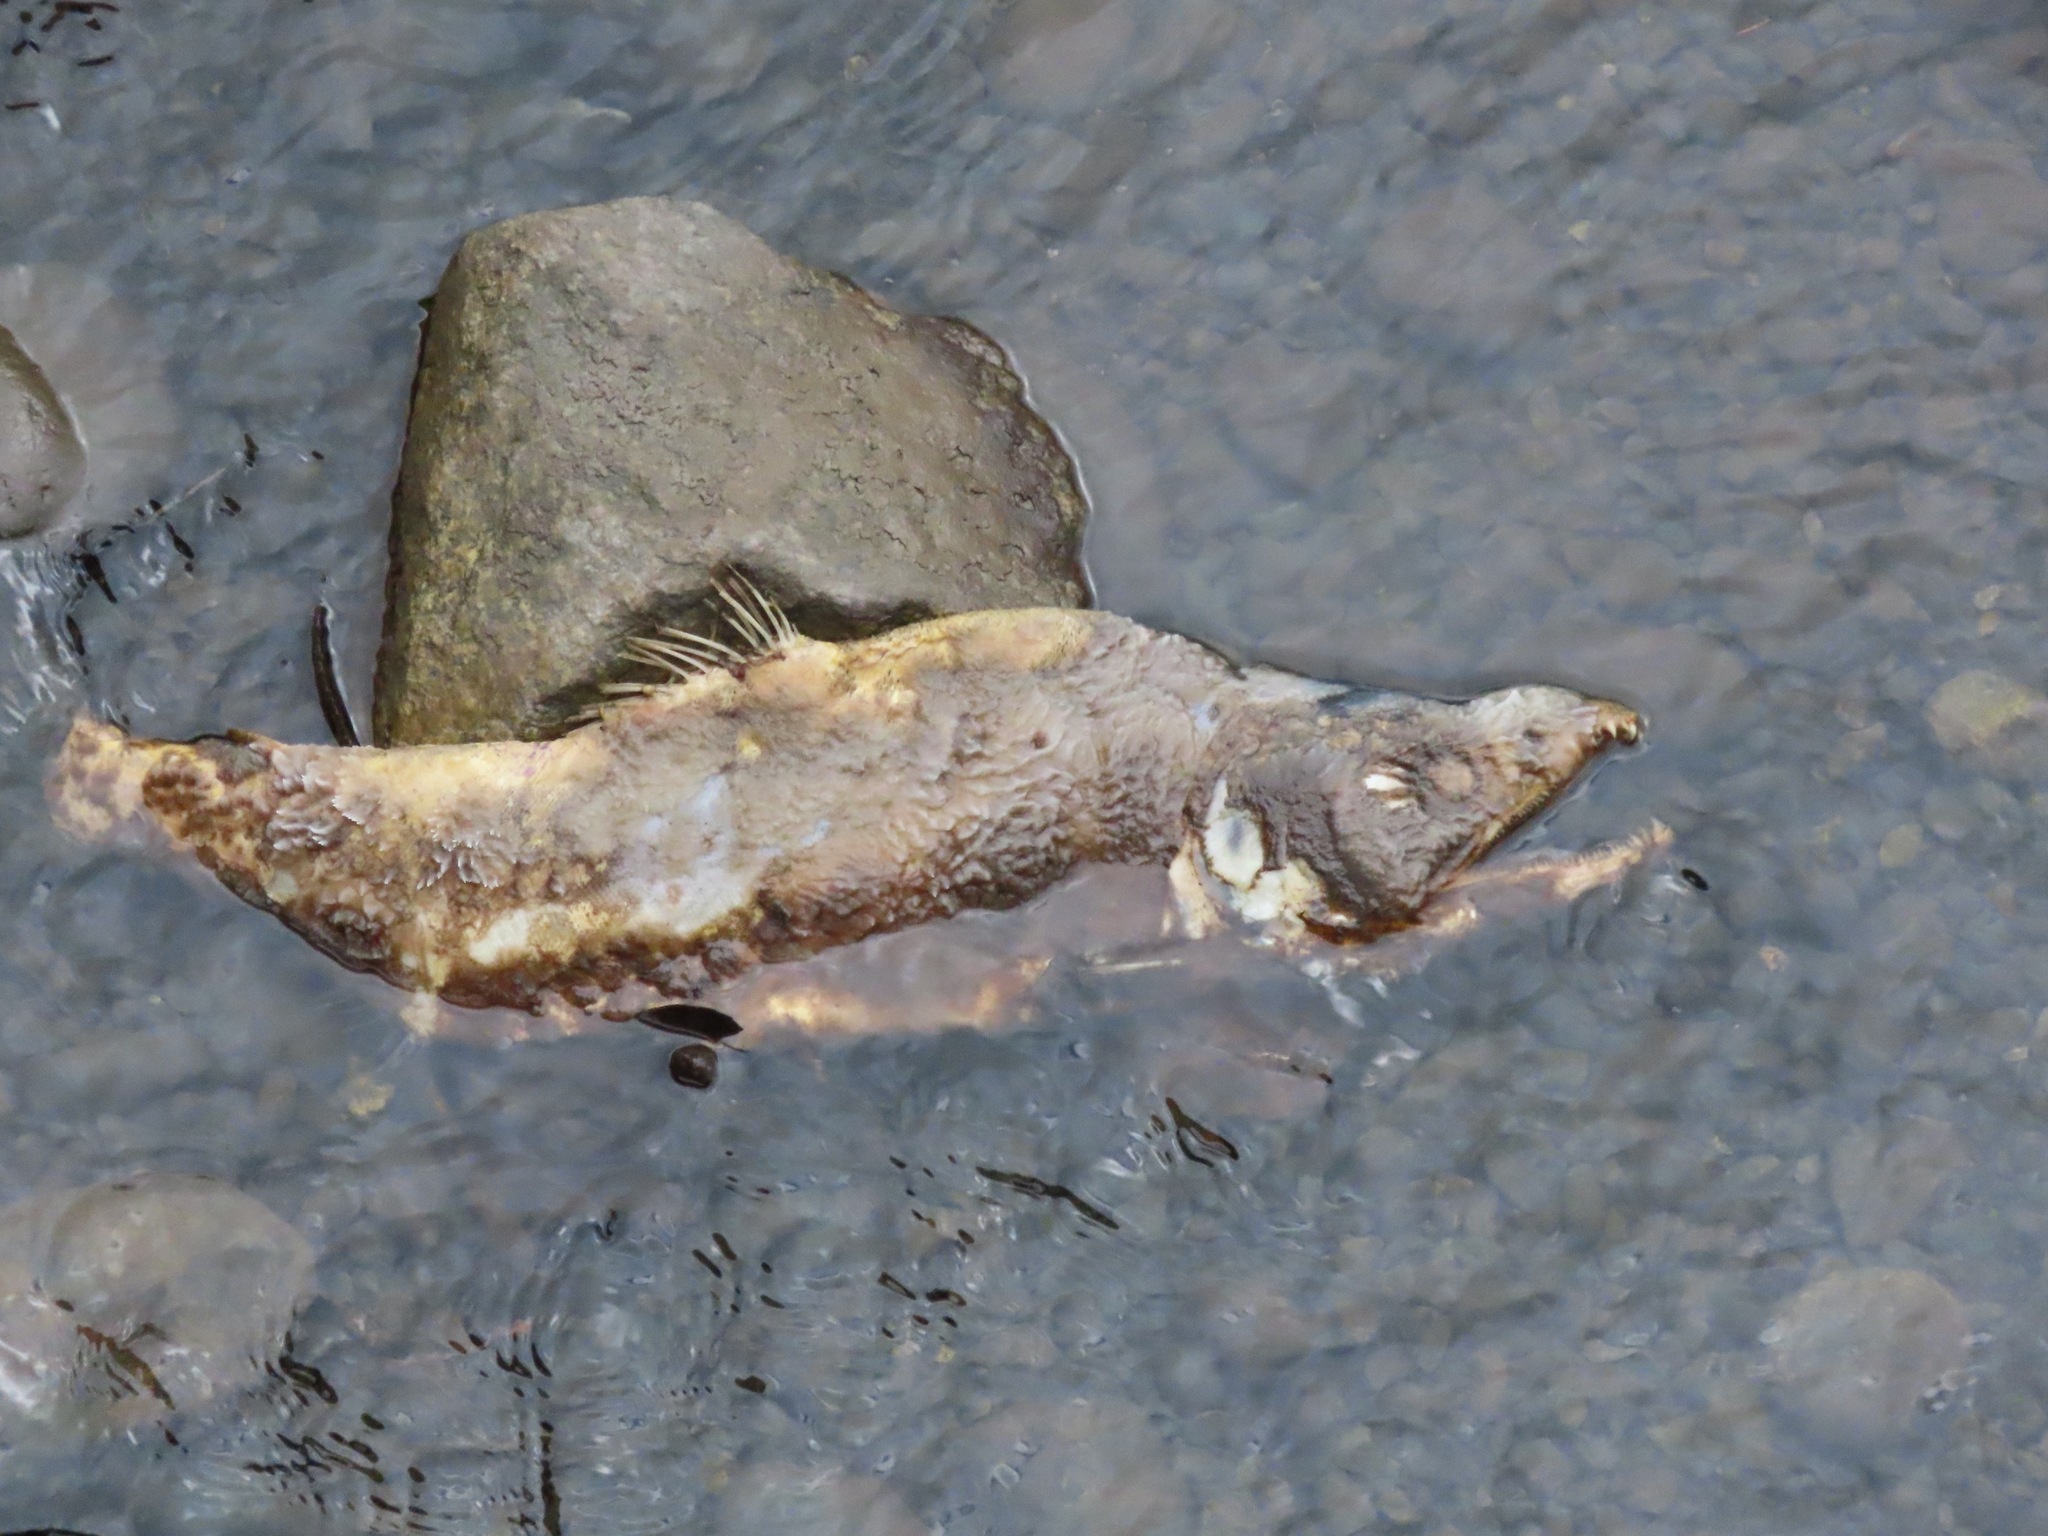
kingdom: Animalia
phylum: Chordata
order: Salmoniformes
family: Salmonidae
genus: Oncorhynchus
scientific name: Oncorhynchus gorbuscha
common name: Humpback salmon
